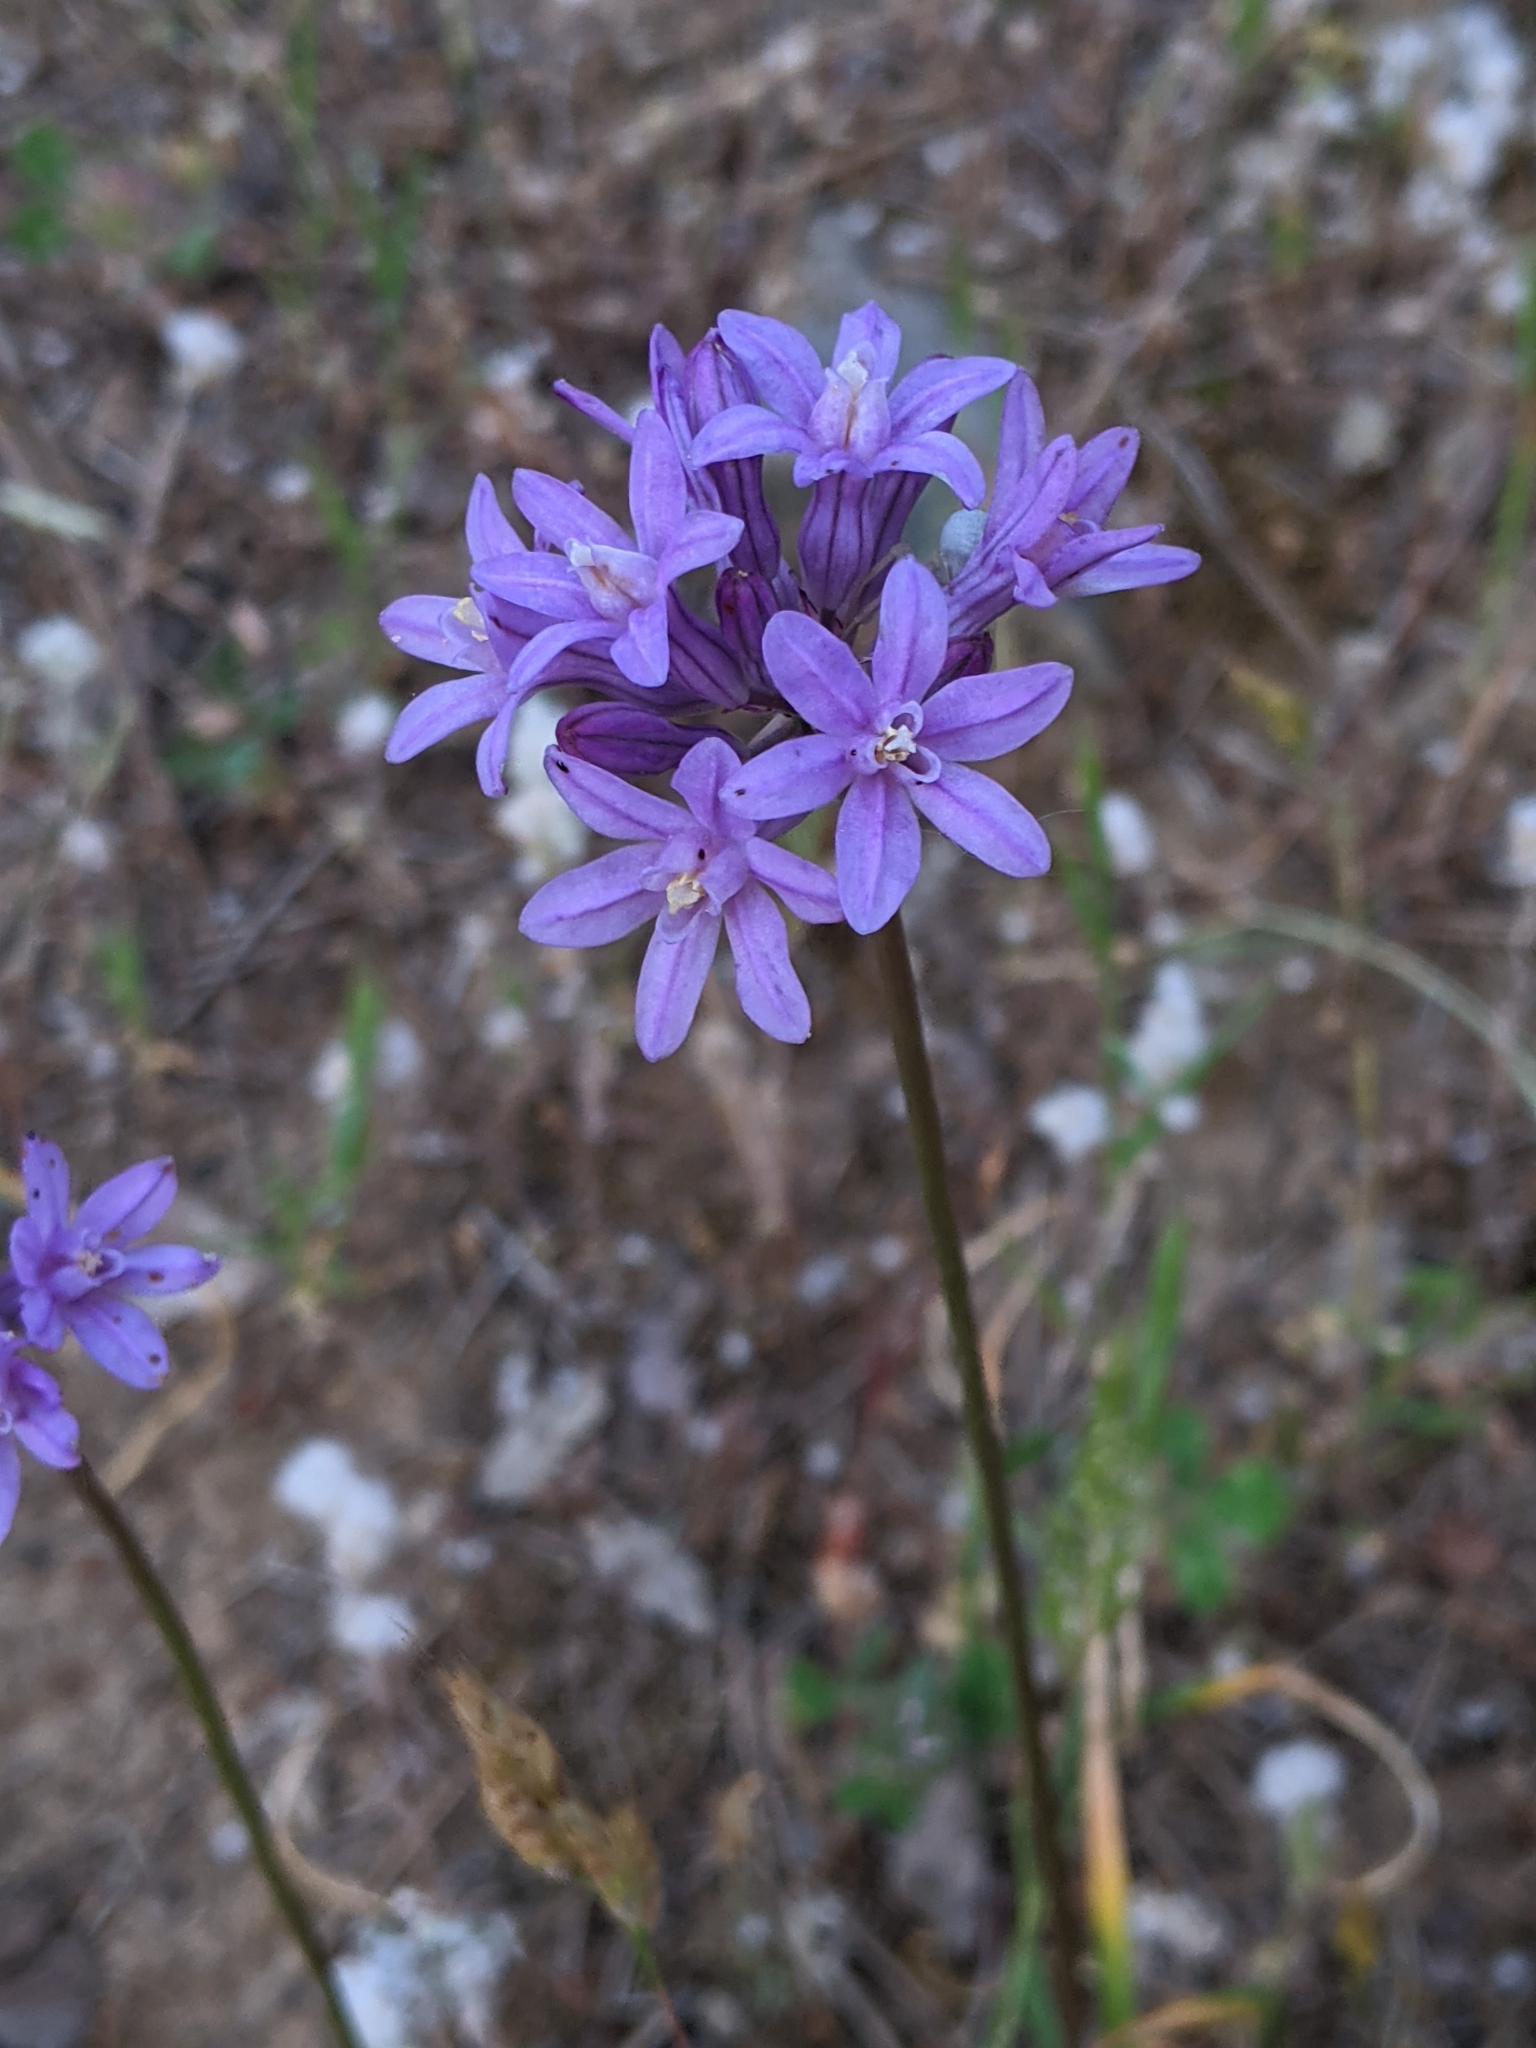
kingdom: Plantae
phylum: Tracheophyta
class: Liliopsida
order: Asparagales
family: Asparagaceae
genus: Dichelostemma
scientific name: Dichelostemma multiflorum
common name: Round-tooth ookow
